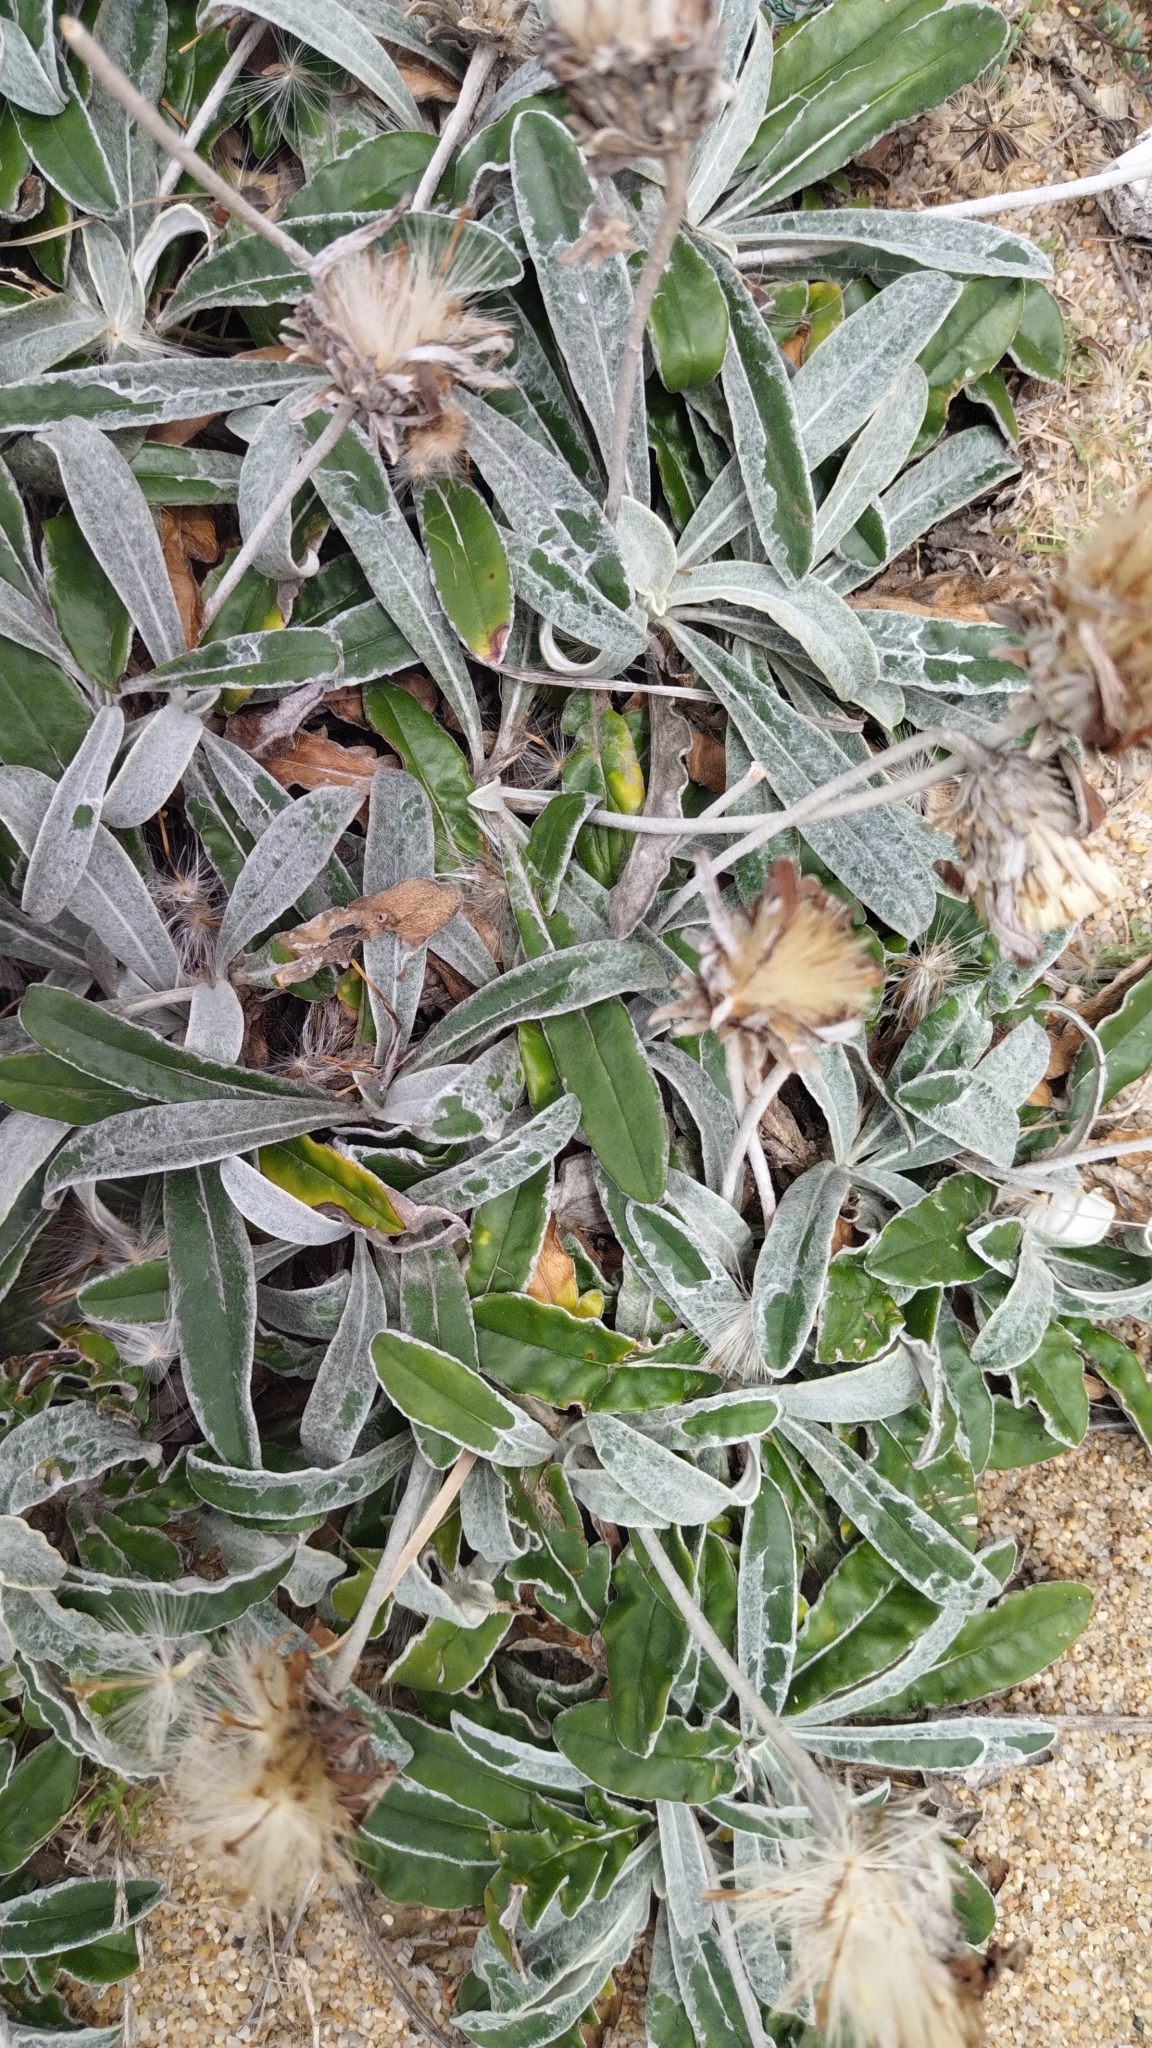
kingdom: Plantae
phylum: Tracheophyta
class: Magnoliopsida
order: Asterales
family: Asteraceae
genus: Trichocline
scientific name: Trichocline incana
